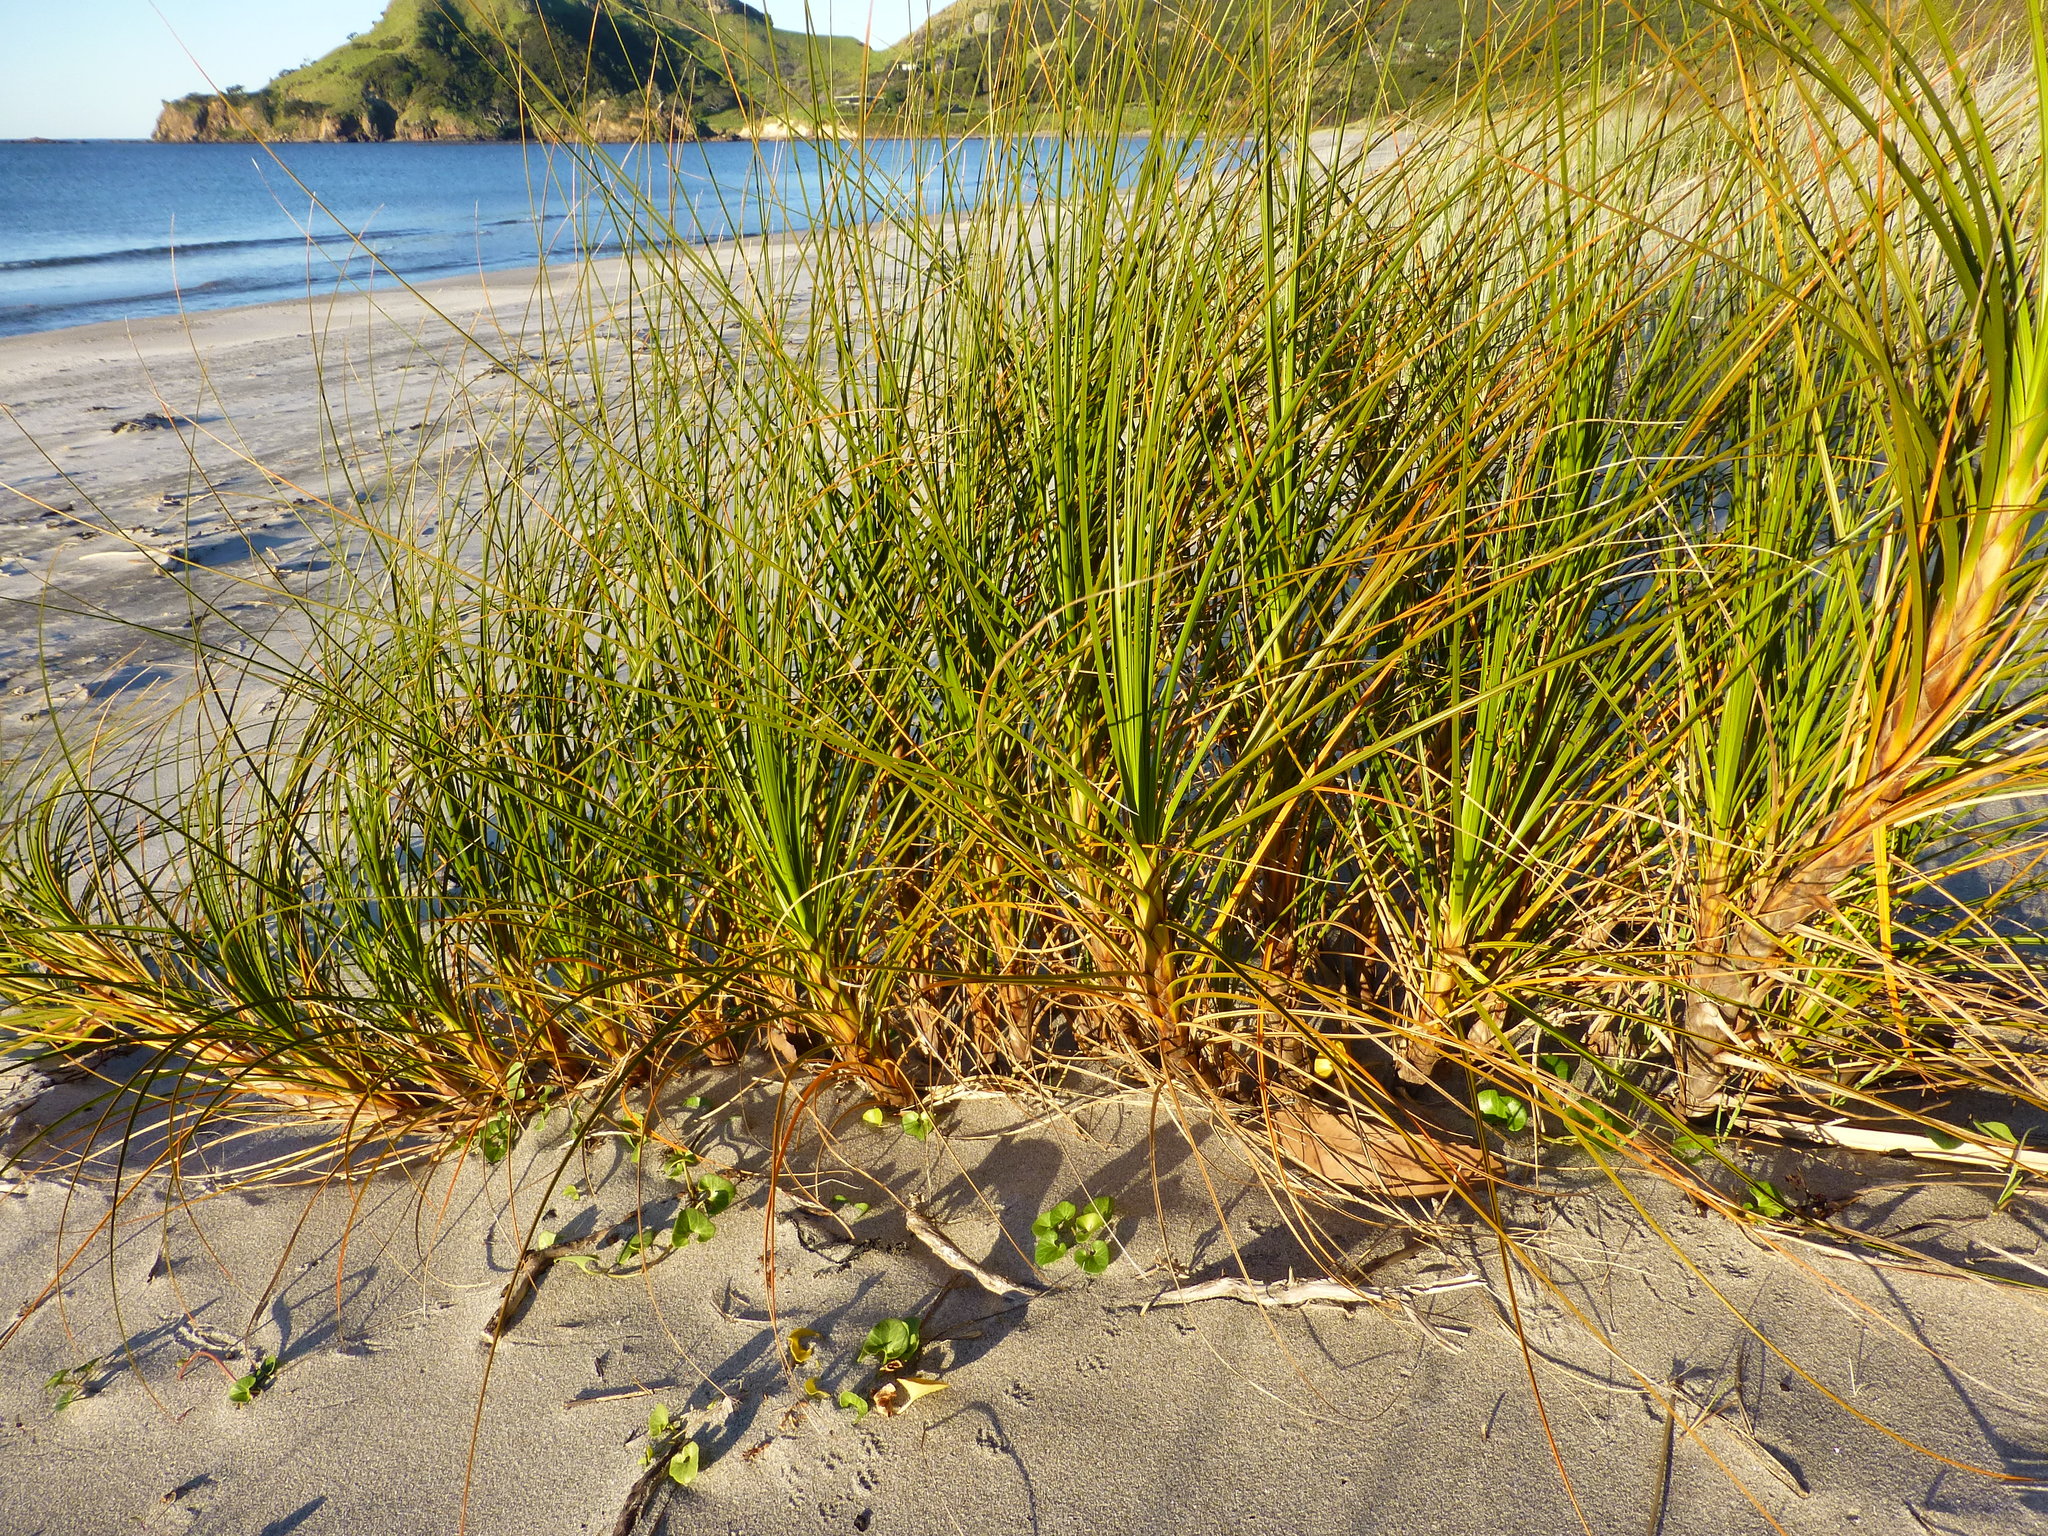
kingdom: Plantae
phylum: Tracheophyta
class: Liliopsida
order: Poales
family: Cyperaceae
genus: Ficinia
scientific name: Ficinia spiralis
